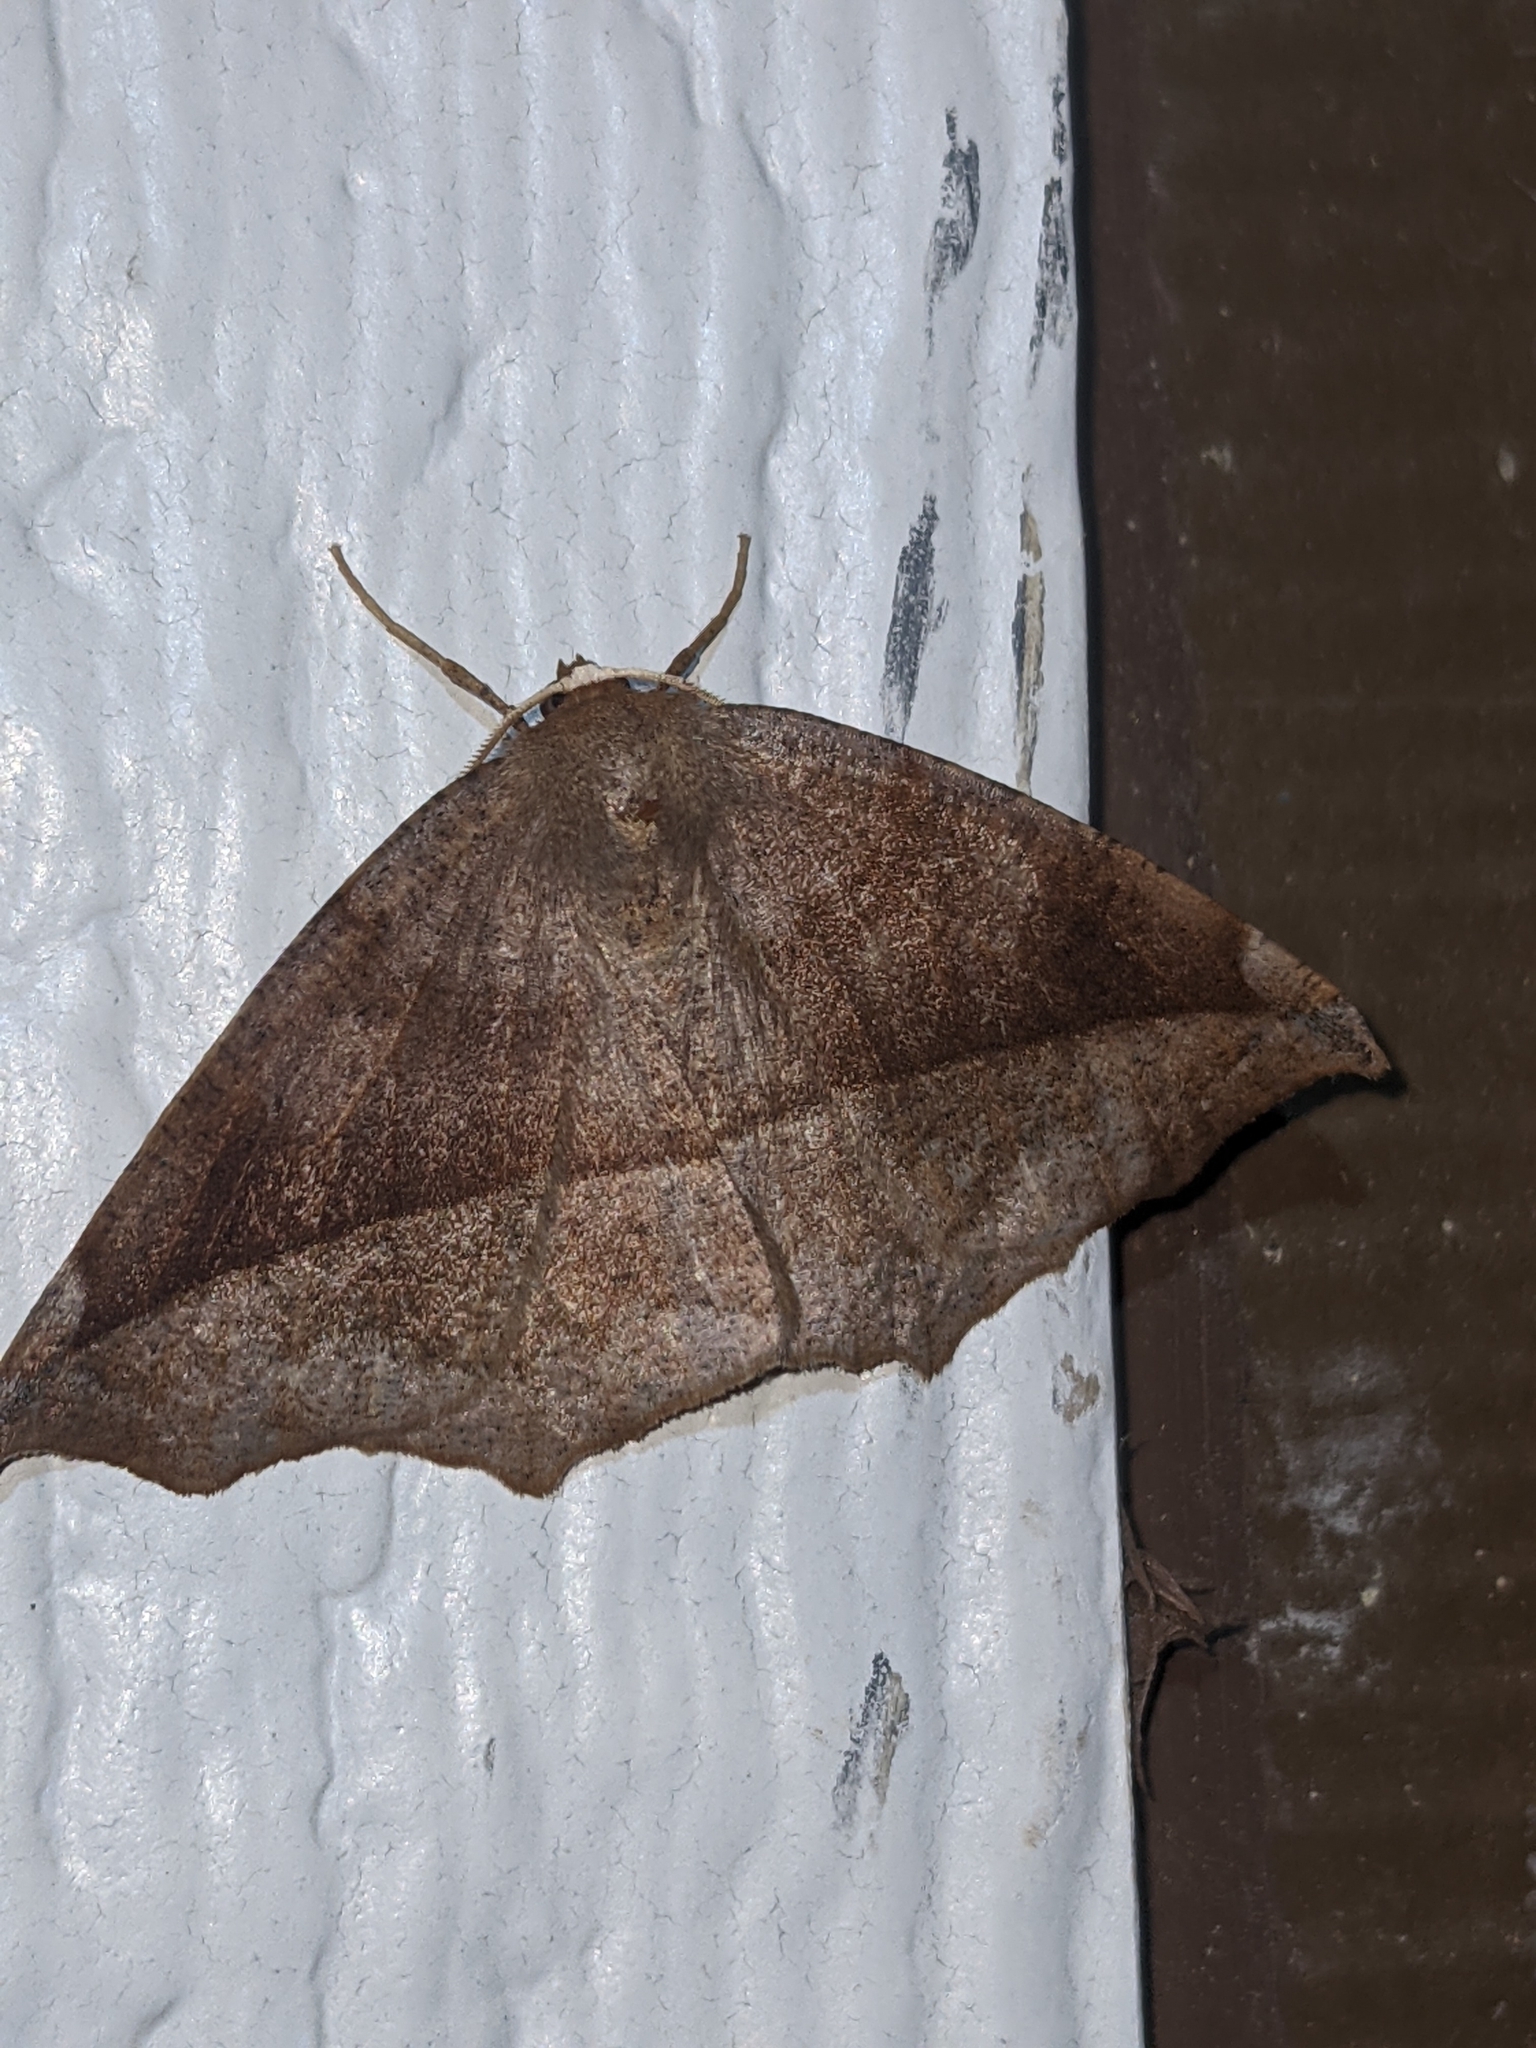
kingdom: Animalia
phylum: Arthropoda
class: Insecta
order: Lepidoptera
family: Geometridae
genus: Eutrapela
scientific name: Eutrapela clemataria
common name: Curved-toothed geometer
